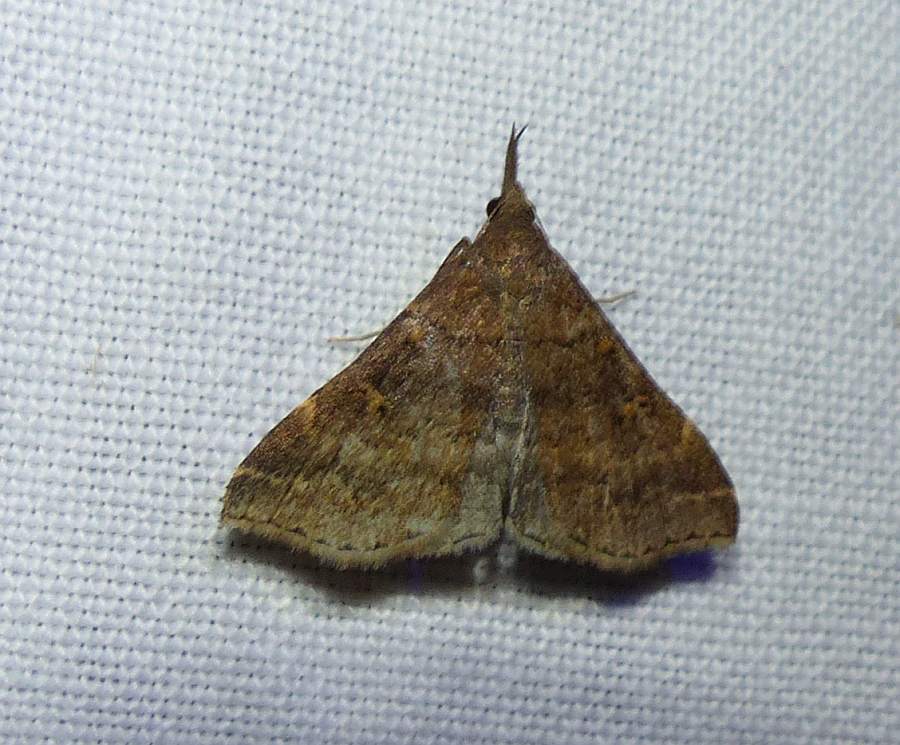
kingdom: Animalia
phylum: Arthropoda
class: Insecta
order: Lepidoptera
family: Erebidae
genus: Renia
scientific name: Renia factiosalis
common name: Sociable renia moth
